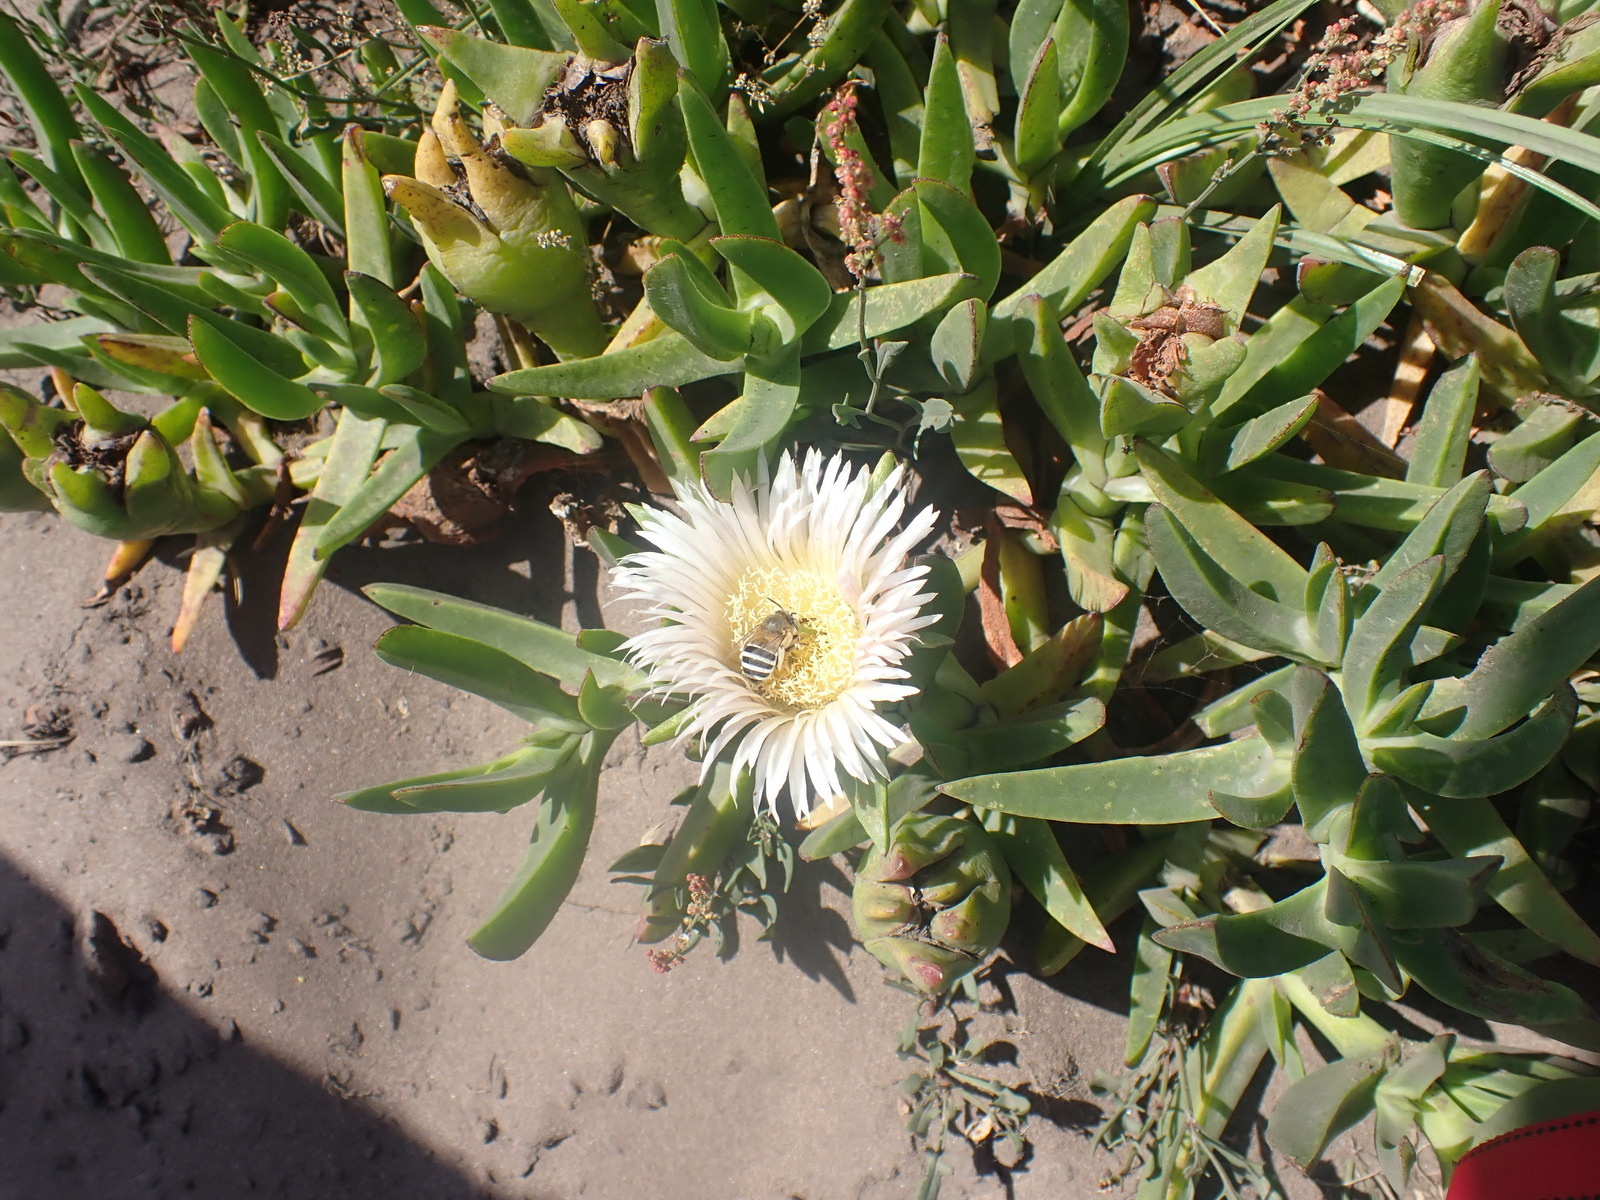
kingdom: Plantae
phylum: Tracheophyta
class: Magnoliopsida
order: Caryophyllales
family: Aizoaceae
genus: Carpobrotus
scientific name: Carpobrotus edulis
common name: Hottentot-fig
